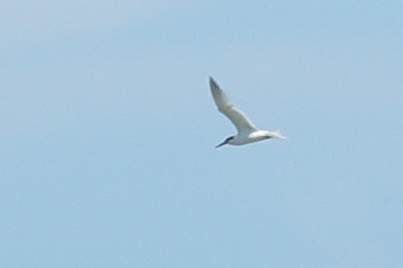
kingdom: Animalia
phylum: Chordata
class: Aves
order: Charadriiformes
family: Laridae
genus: Thalasseus
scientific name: Thalasseus sandvicensis
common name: Sandwich tern
